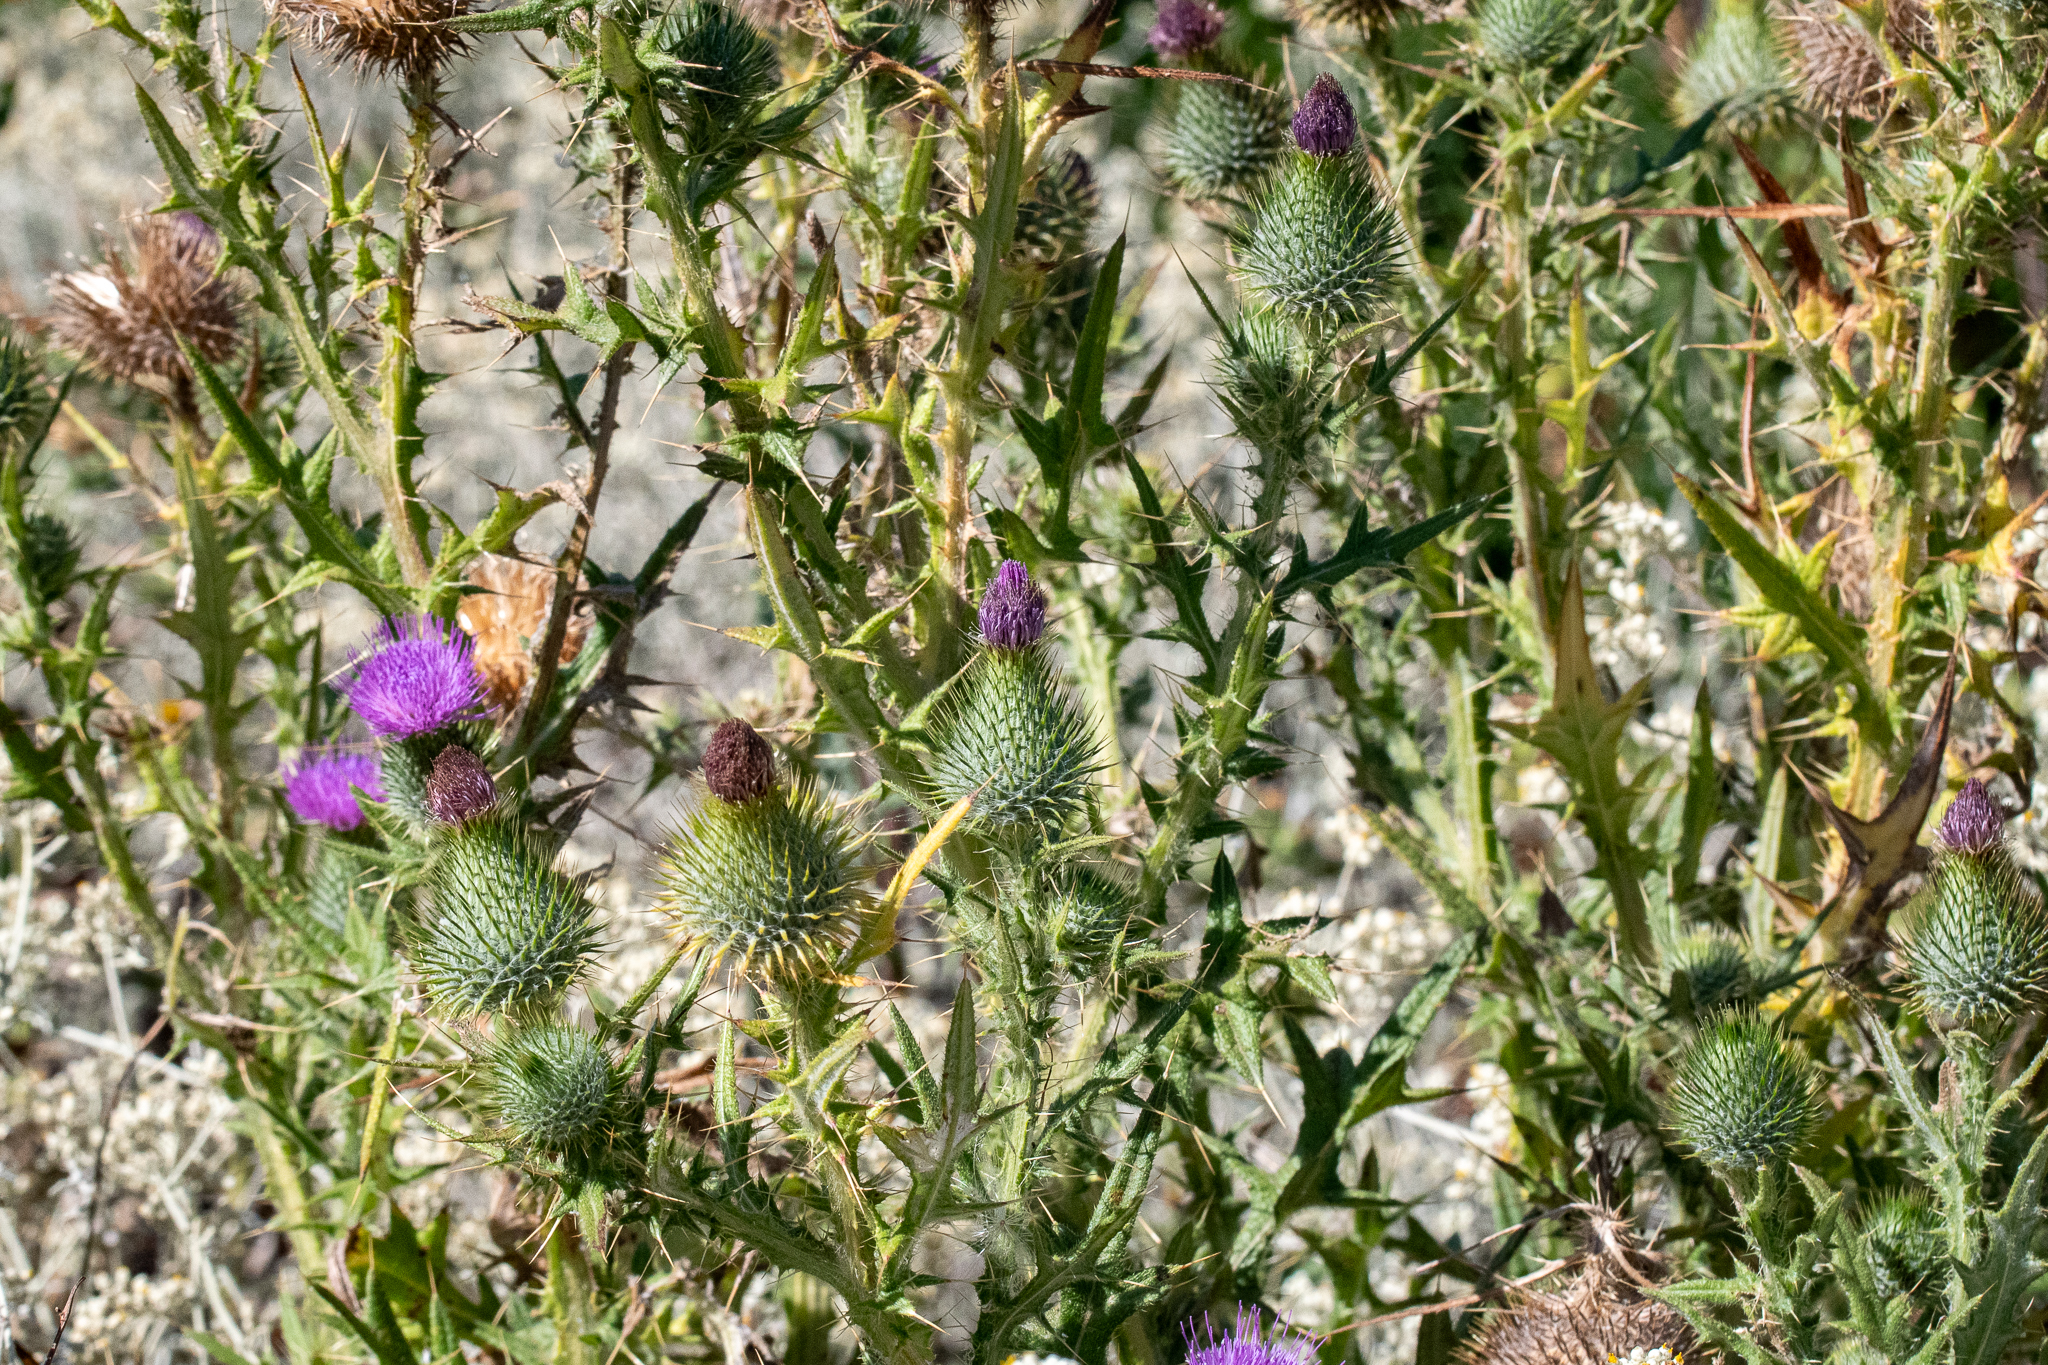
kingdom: Plantae
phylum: Tracheophyta
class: Magnoliopsida
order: Asterales
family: Asteraceae
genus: Cirsium
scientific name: Cirsium vulgare
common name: Bull thistle
